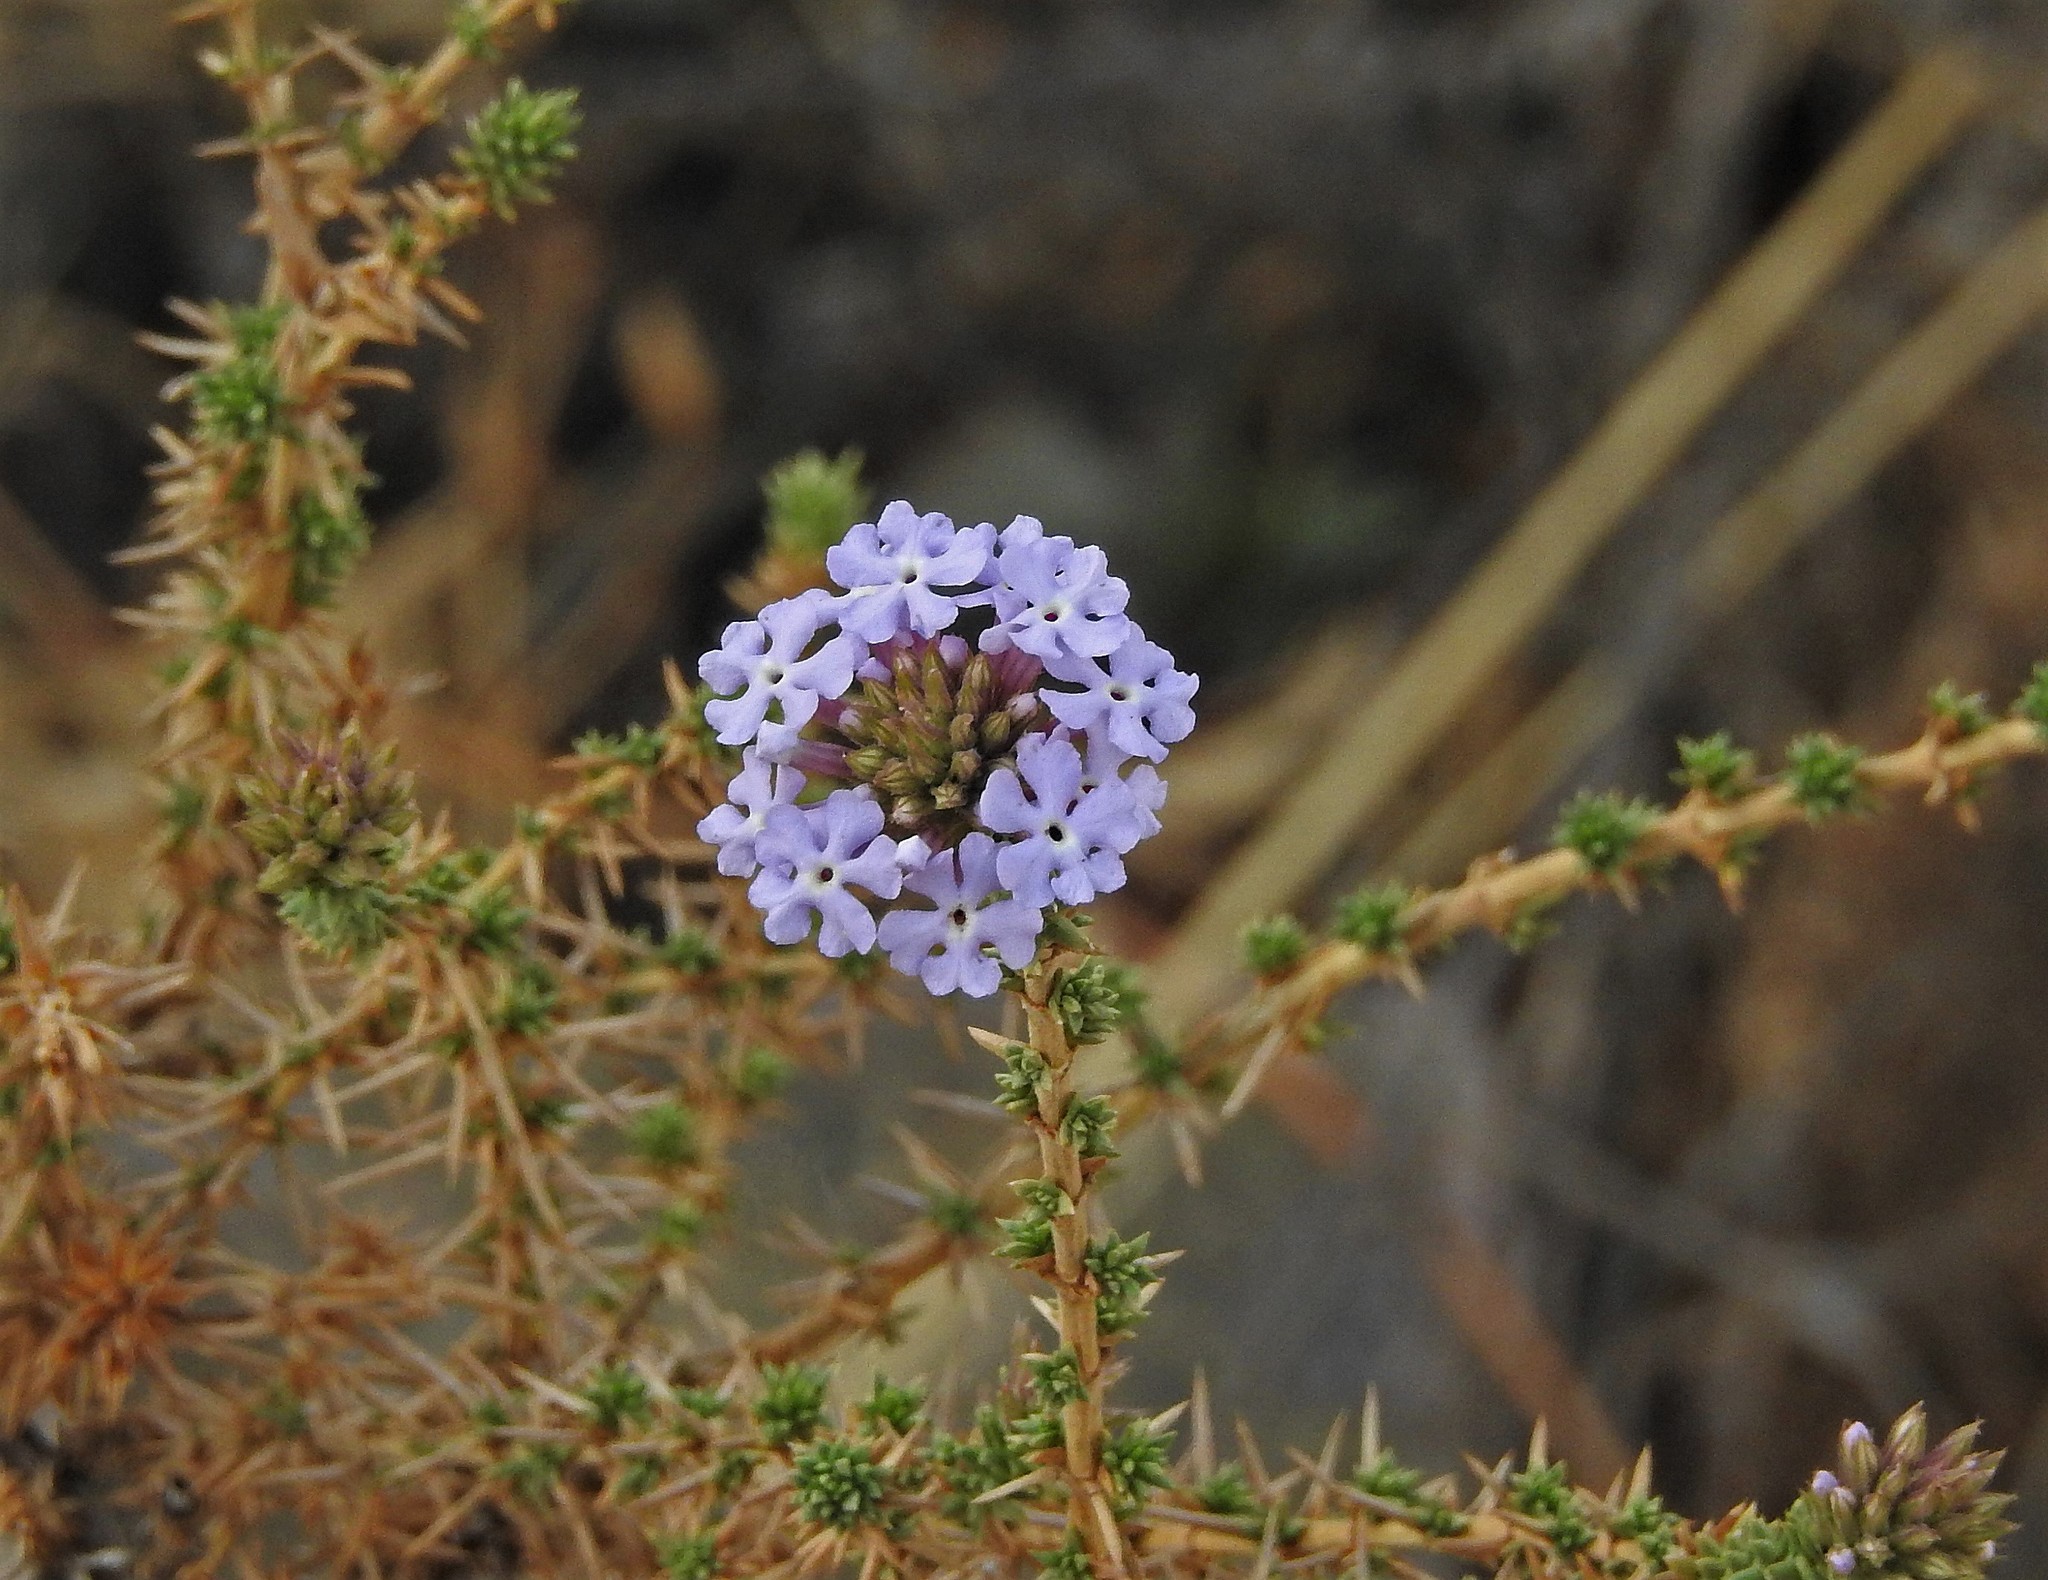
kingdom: Plantae
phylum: Tracheophyta
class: Magnoliopsida
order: Lamiales
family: Verbenaceae
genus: Junellia
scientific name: Junellia juniperina
